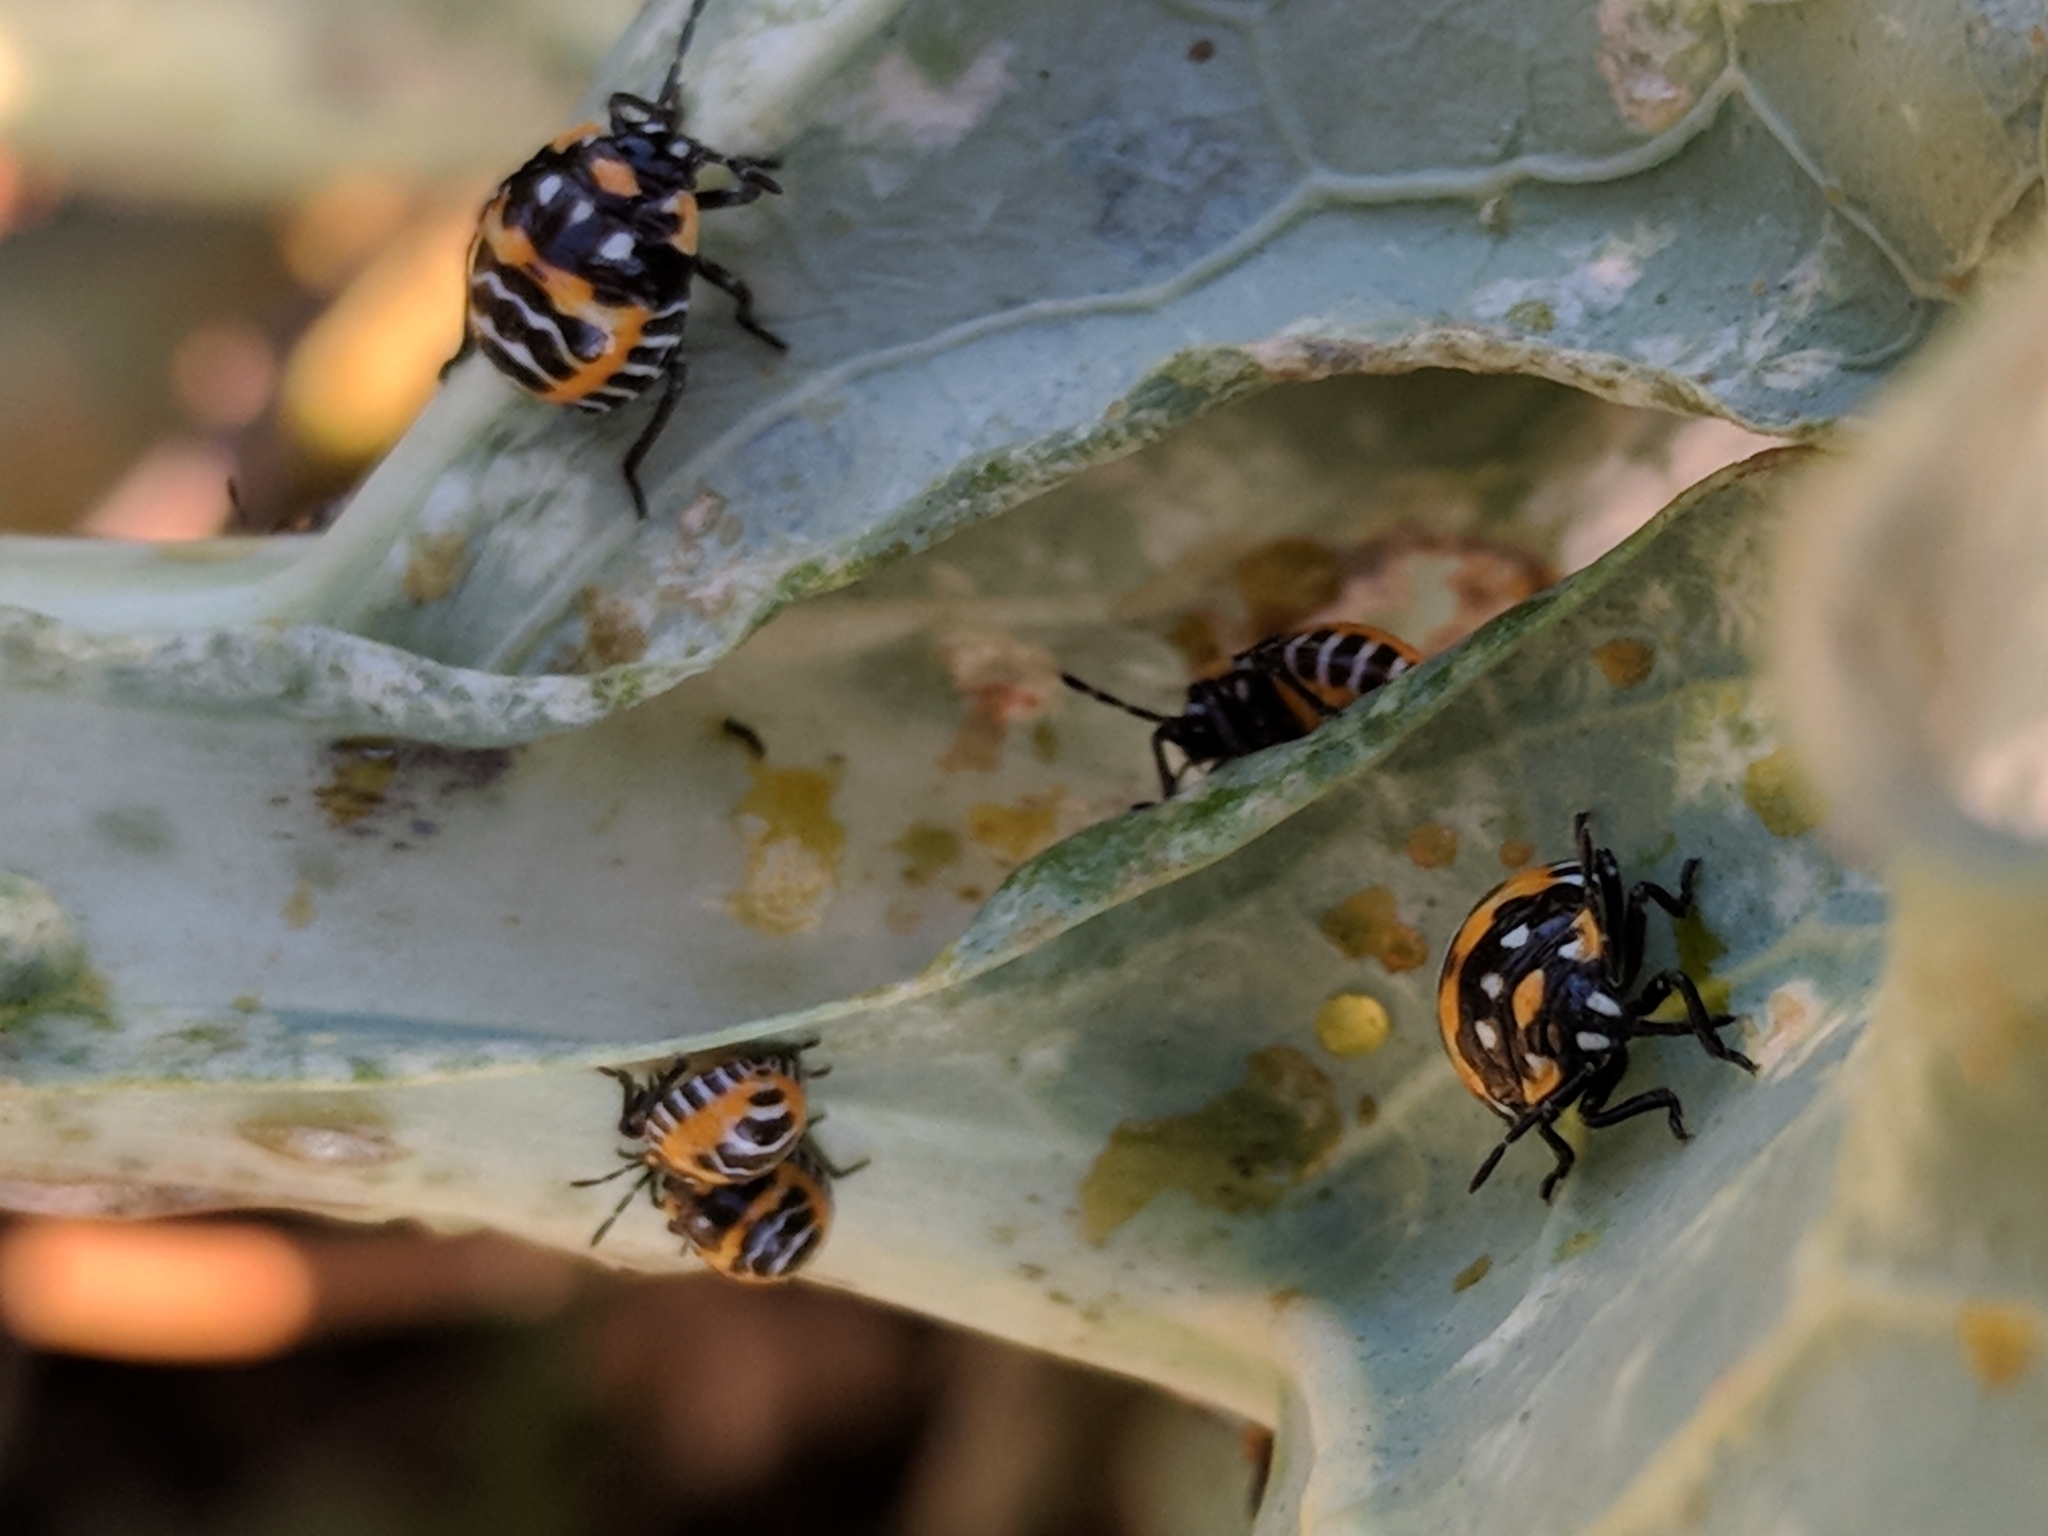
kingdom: Animalia
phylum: Arthropoda
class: Insecta
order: Hemiptera
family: Pentatomidae
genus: Murgantia
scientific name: Murgantia histrionica
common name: Harlequin bug
